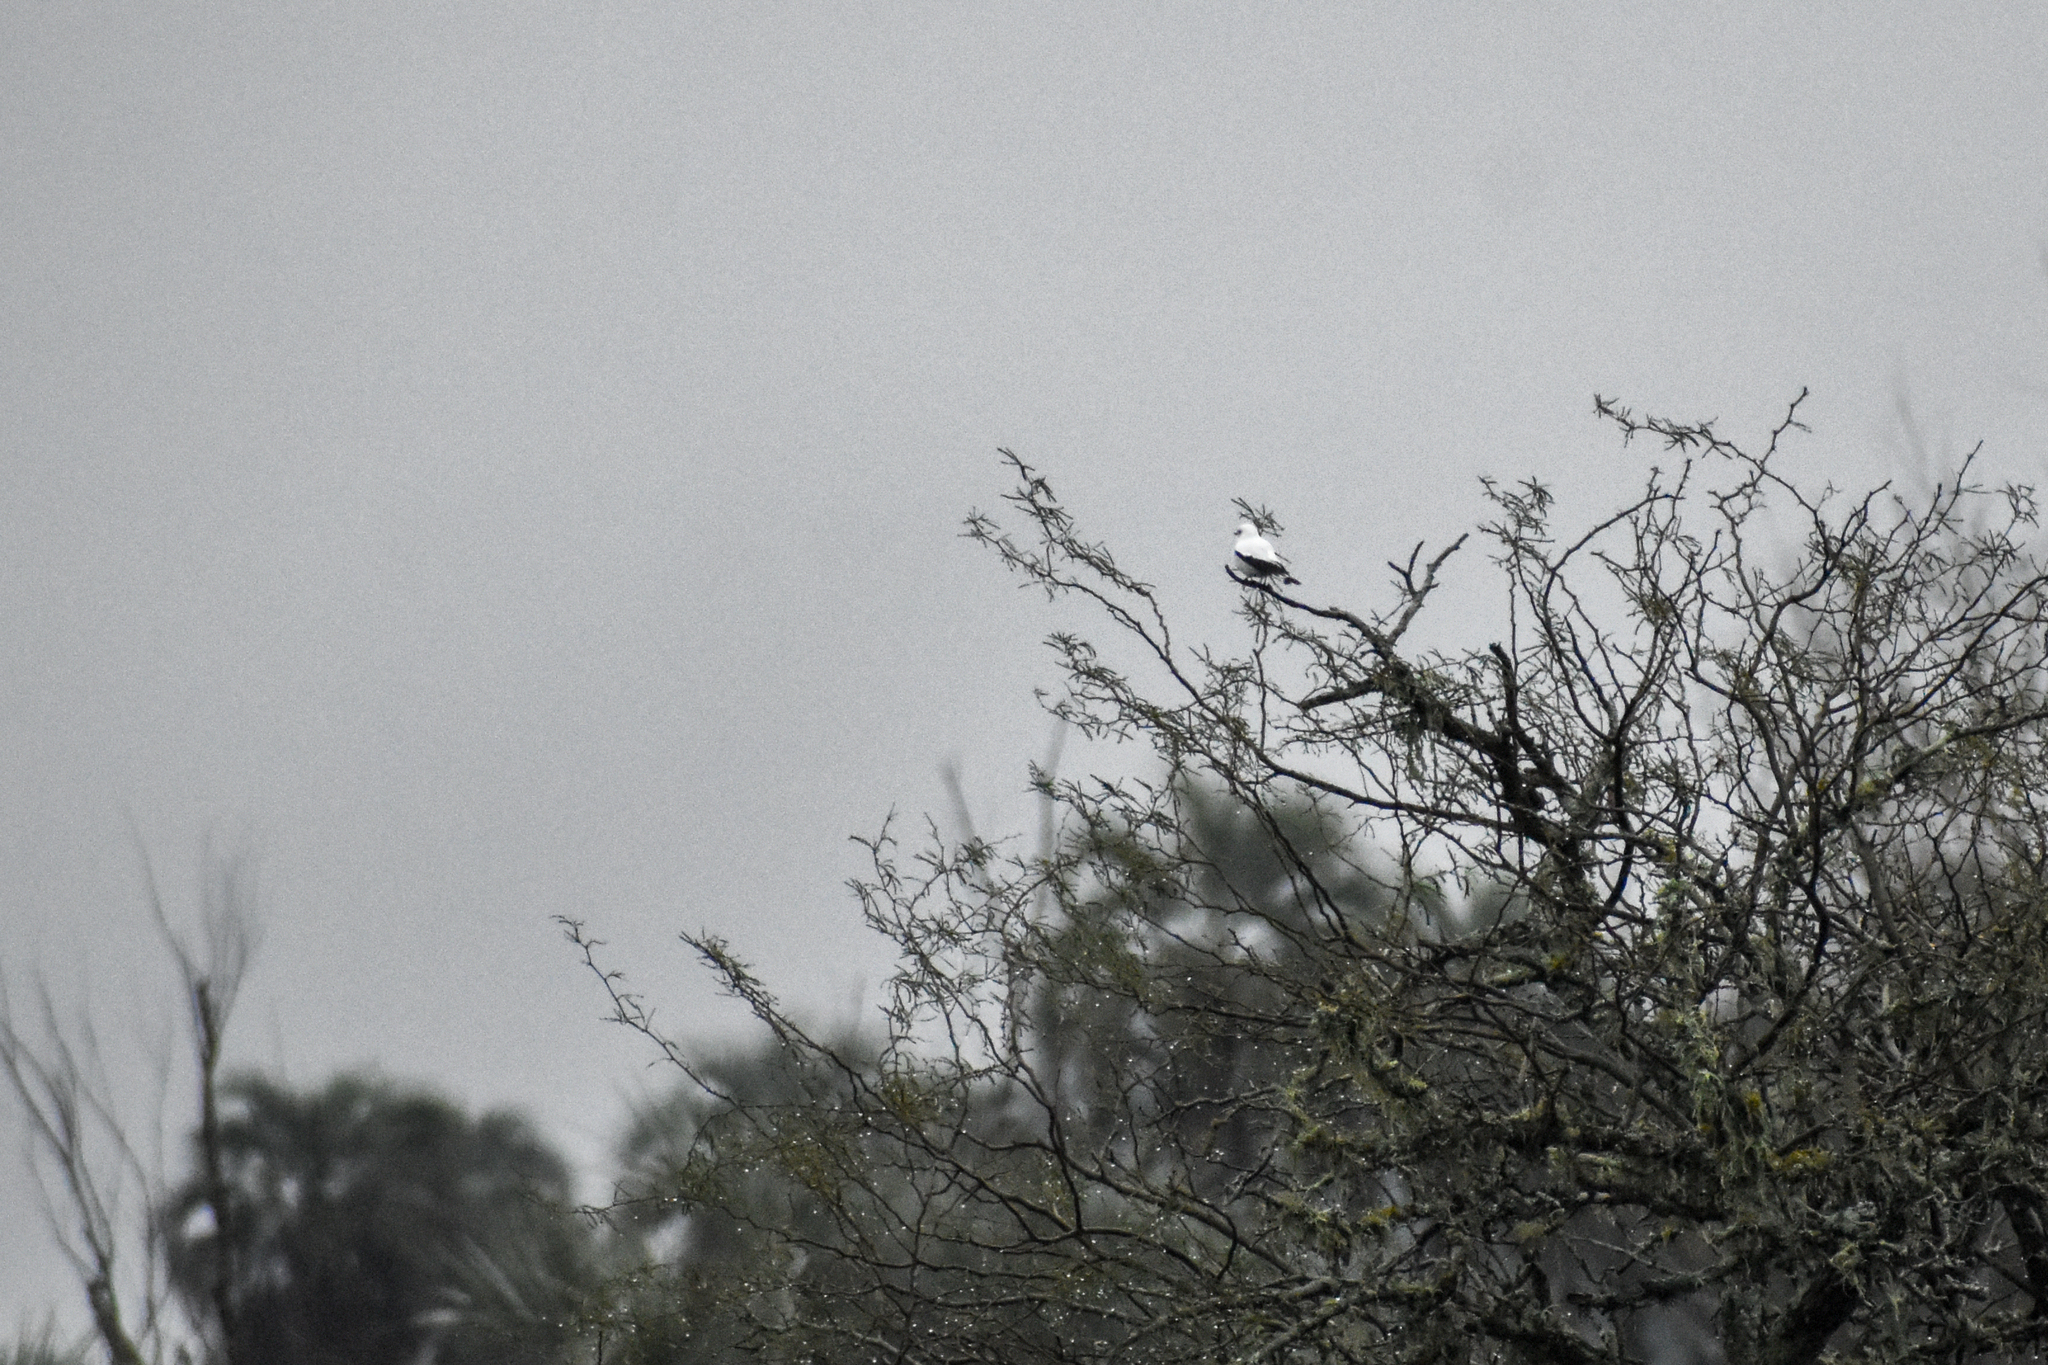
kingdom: Animalia
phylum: Chordata
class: Aves
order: Passeriformes
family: Tyrannidae
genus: Xolmis
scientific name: Xolmis irupero
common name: White monjita
